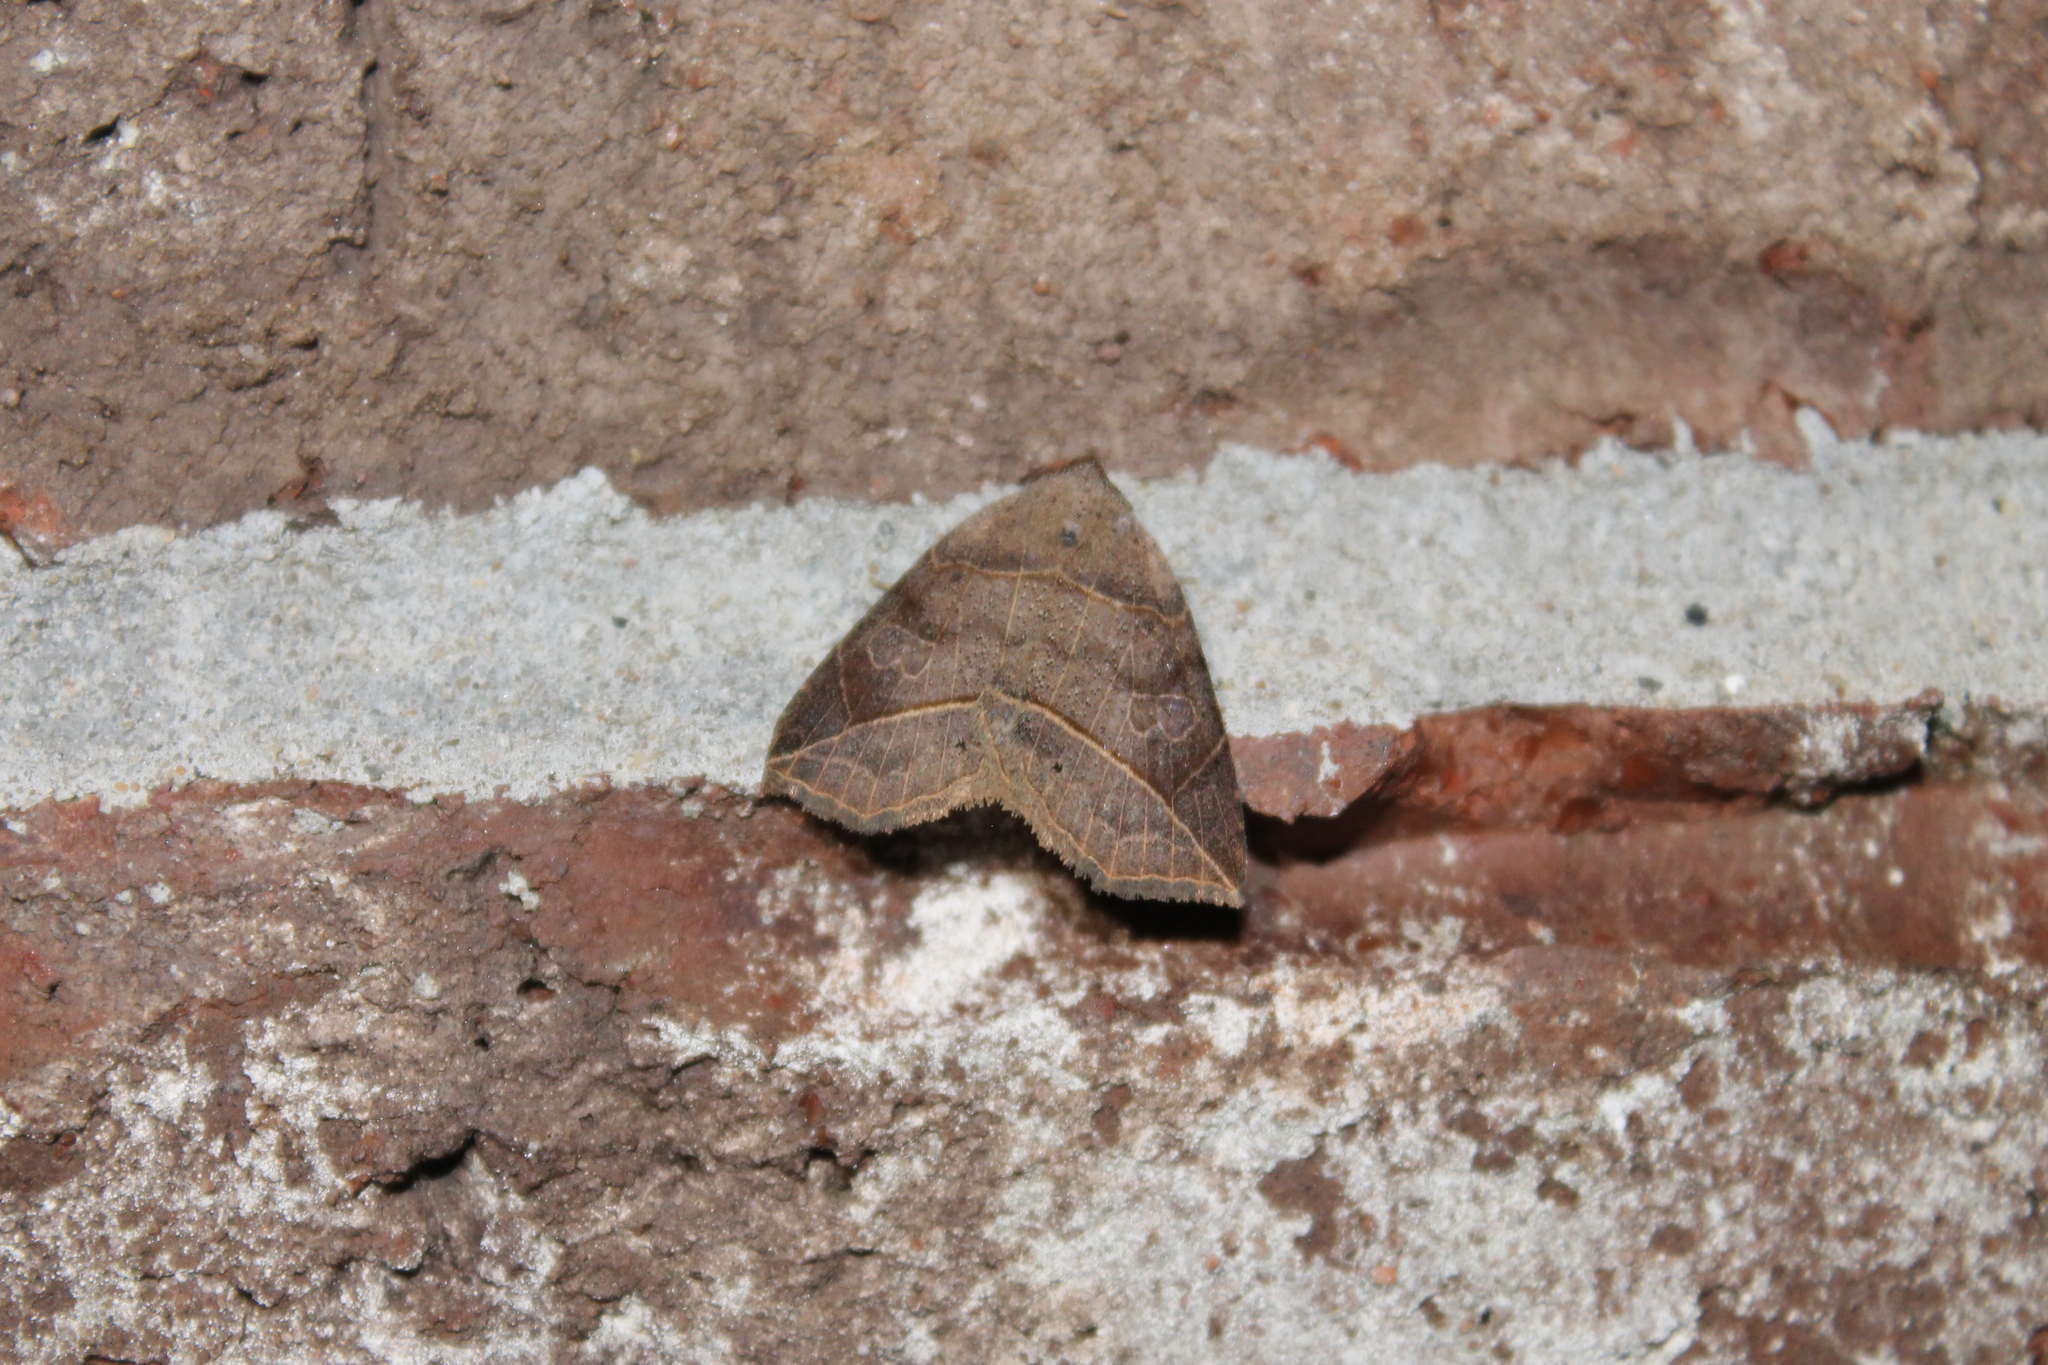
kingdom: Animalia
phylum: Arthropoda
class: Insecta
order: Lepidoptera
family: Erebidae
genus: Isogona
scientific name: Isogona tenuis
